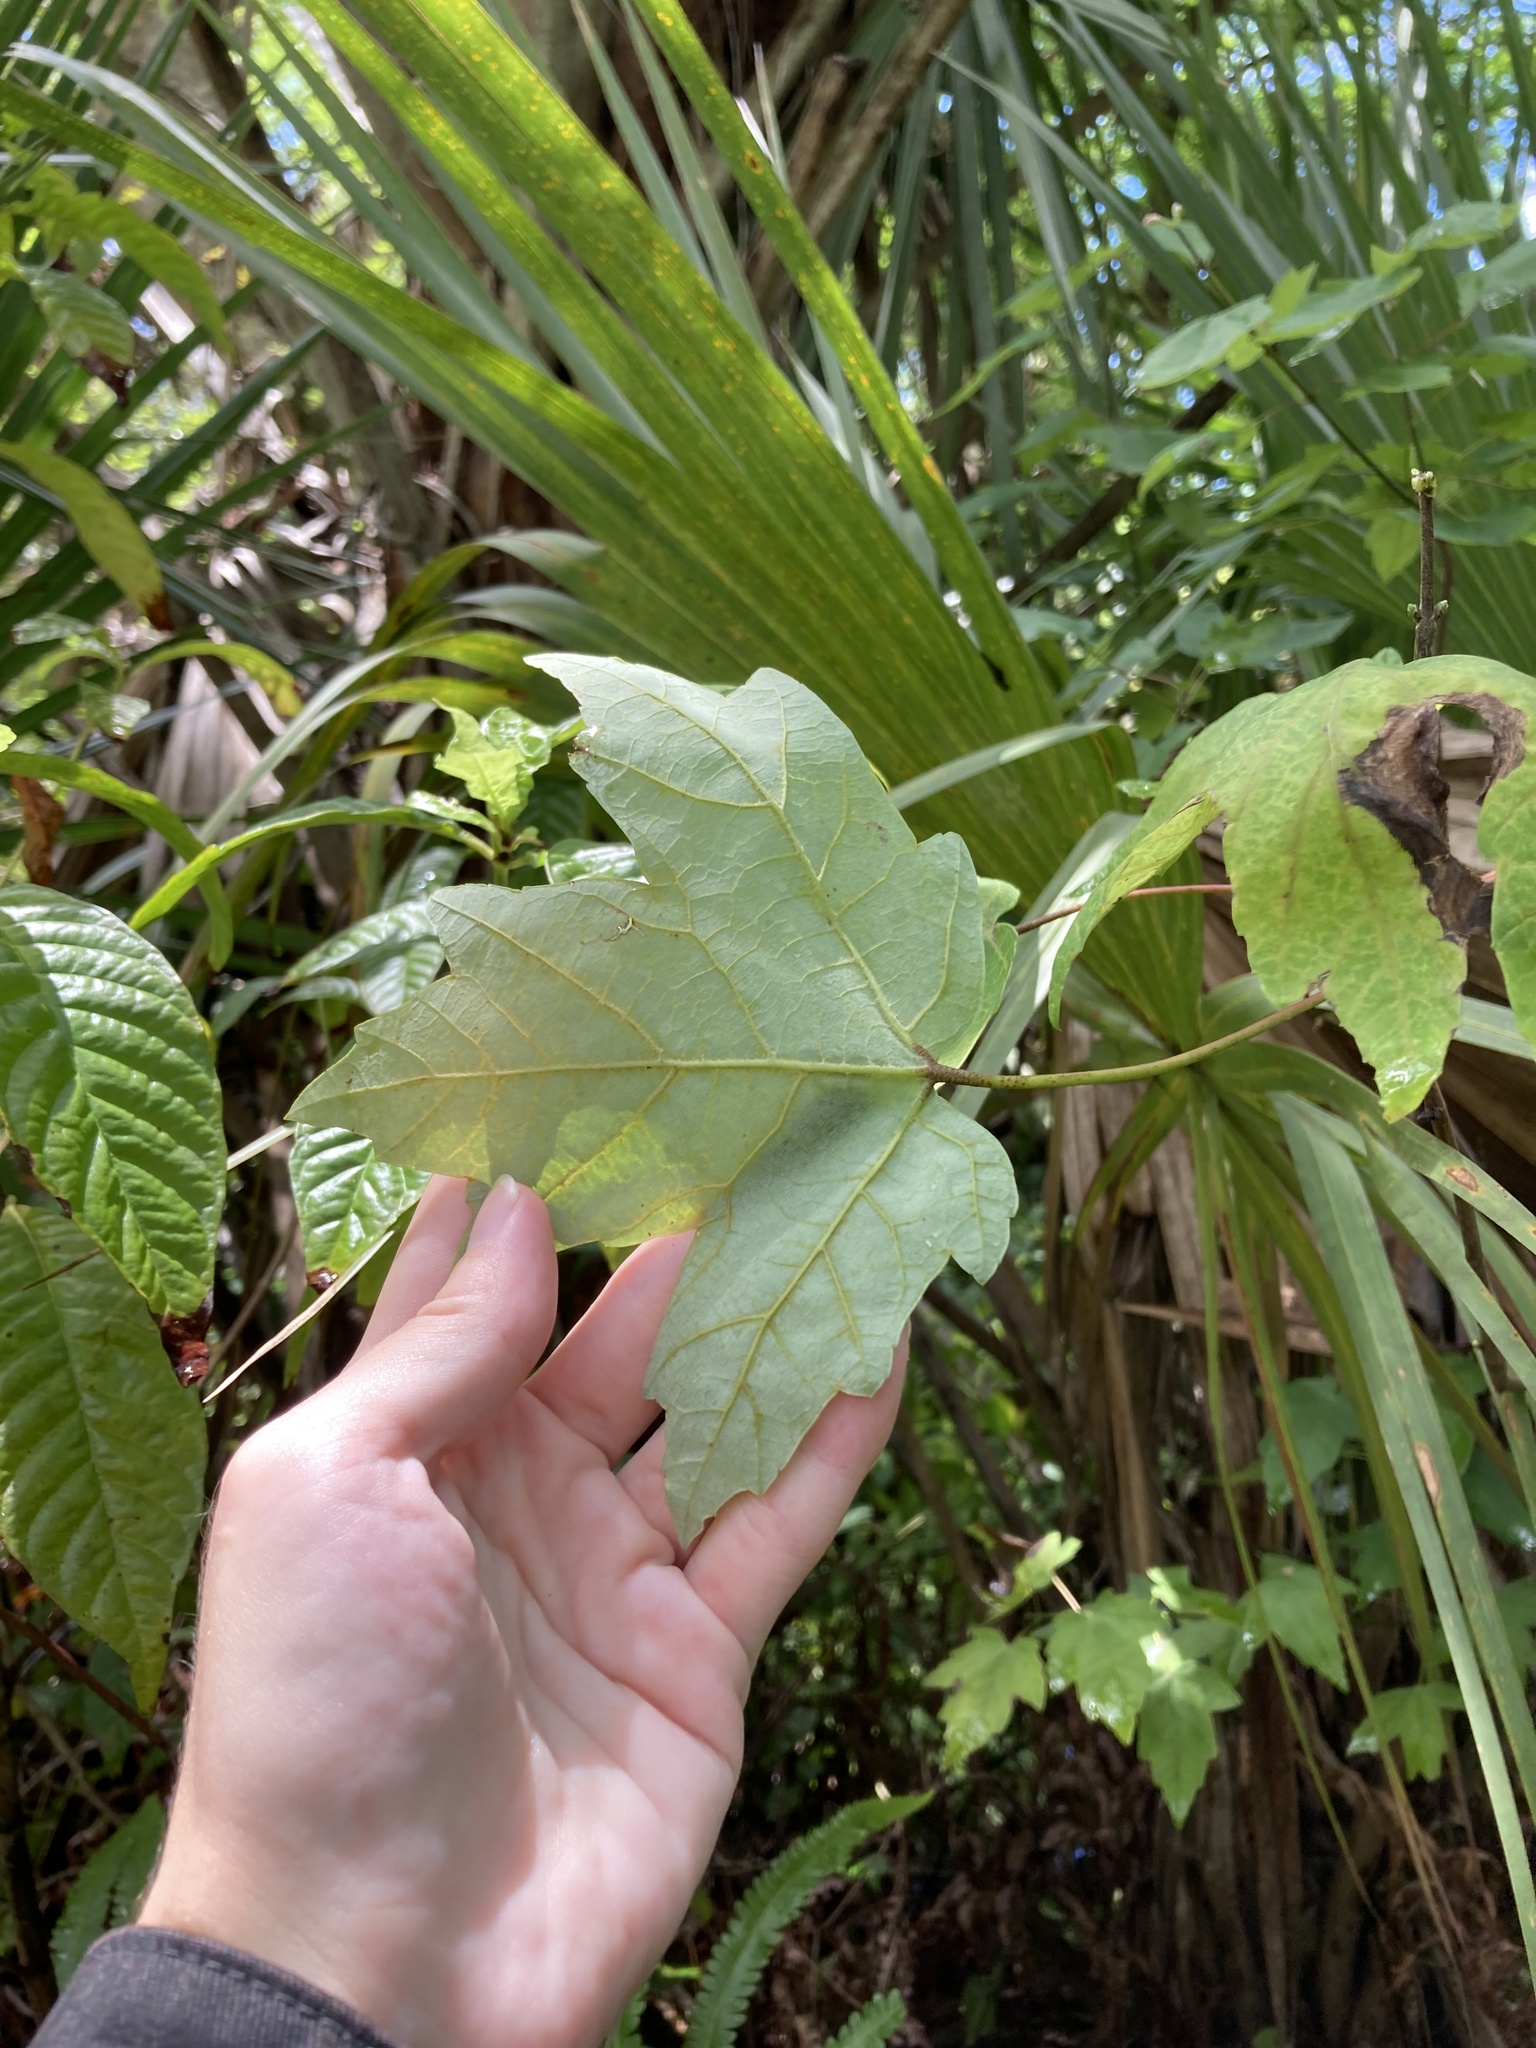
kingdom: Plantae
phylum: Tracheophyta
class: Magnoliopsida
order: Sapindales
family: Sapindaceae
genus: Acer
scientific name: Acer rubrum
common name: Red maple
